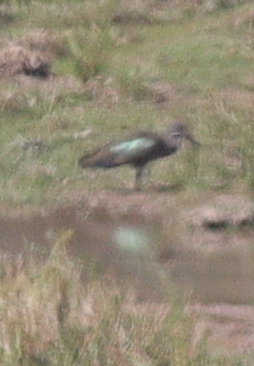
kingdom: Animalia
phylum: Chordata
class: Aves
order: Pelecaniformes
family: Threskiornithidae
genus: Bostrychia
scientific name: Bostrychia hagedash
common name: Hadada ibis
